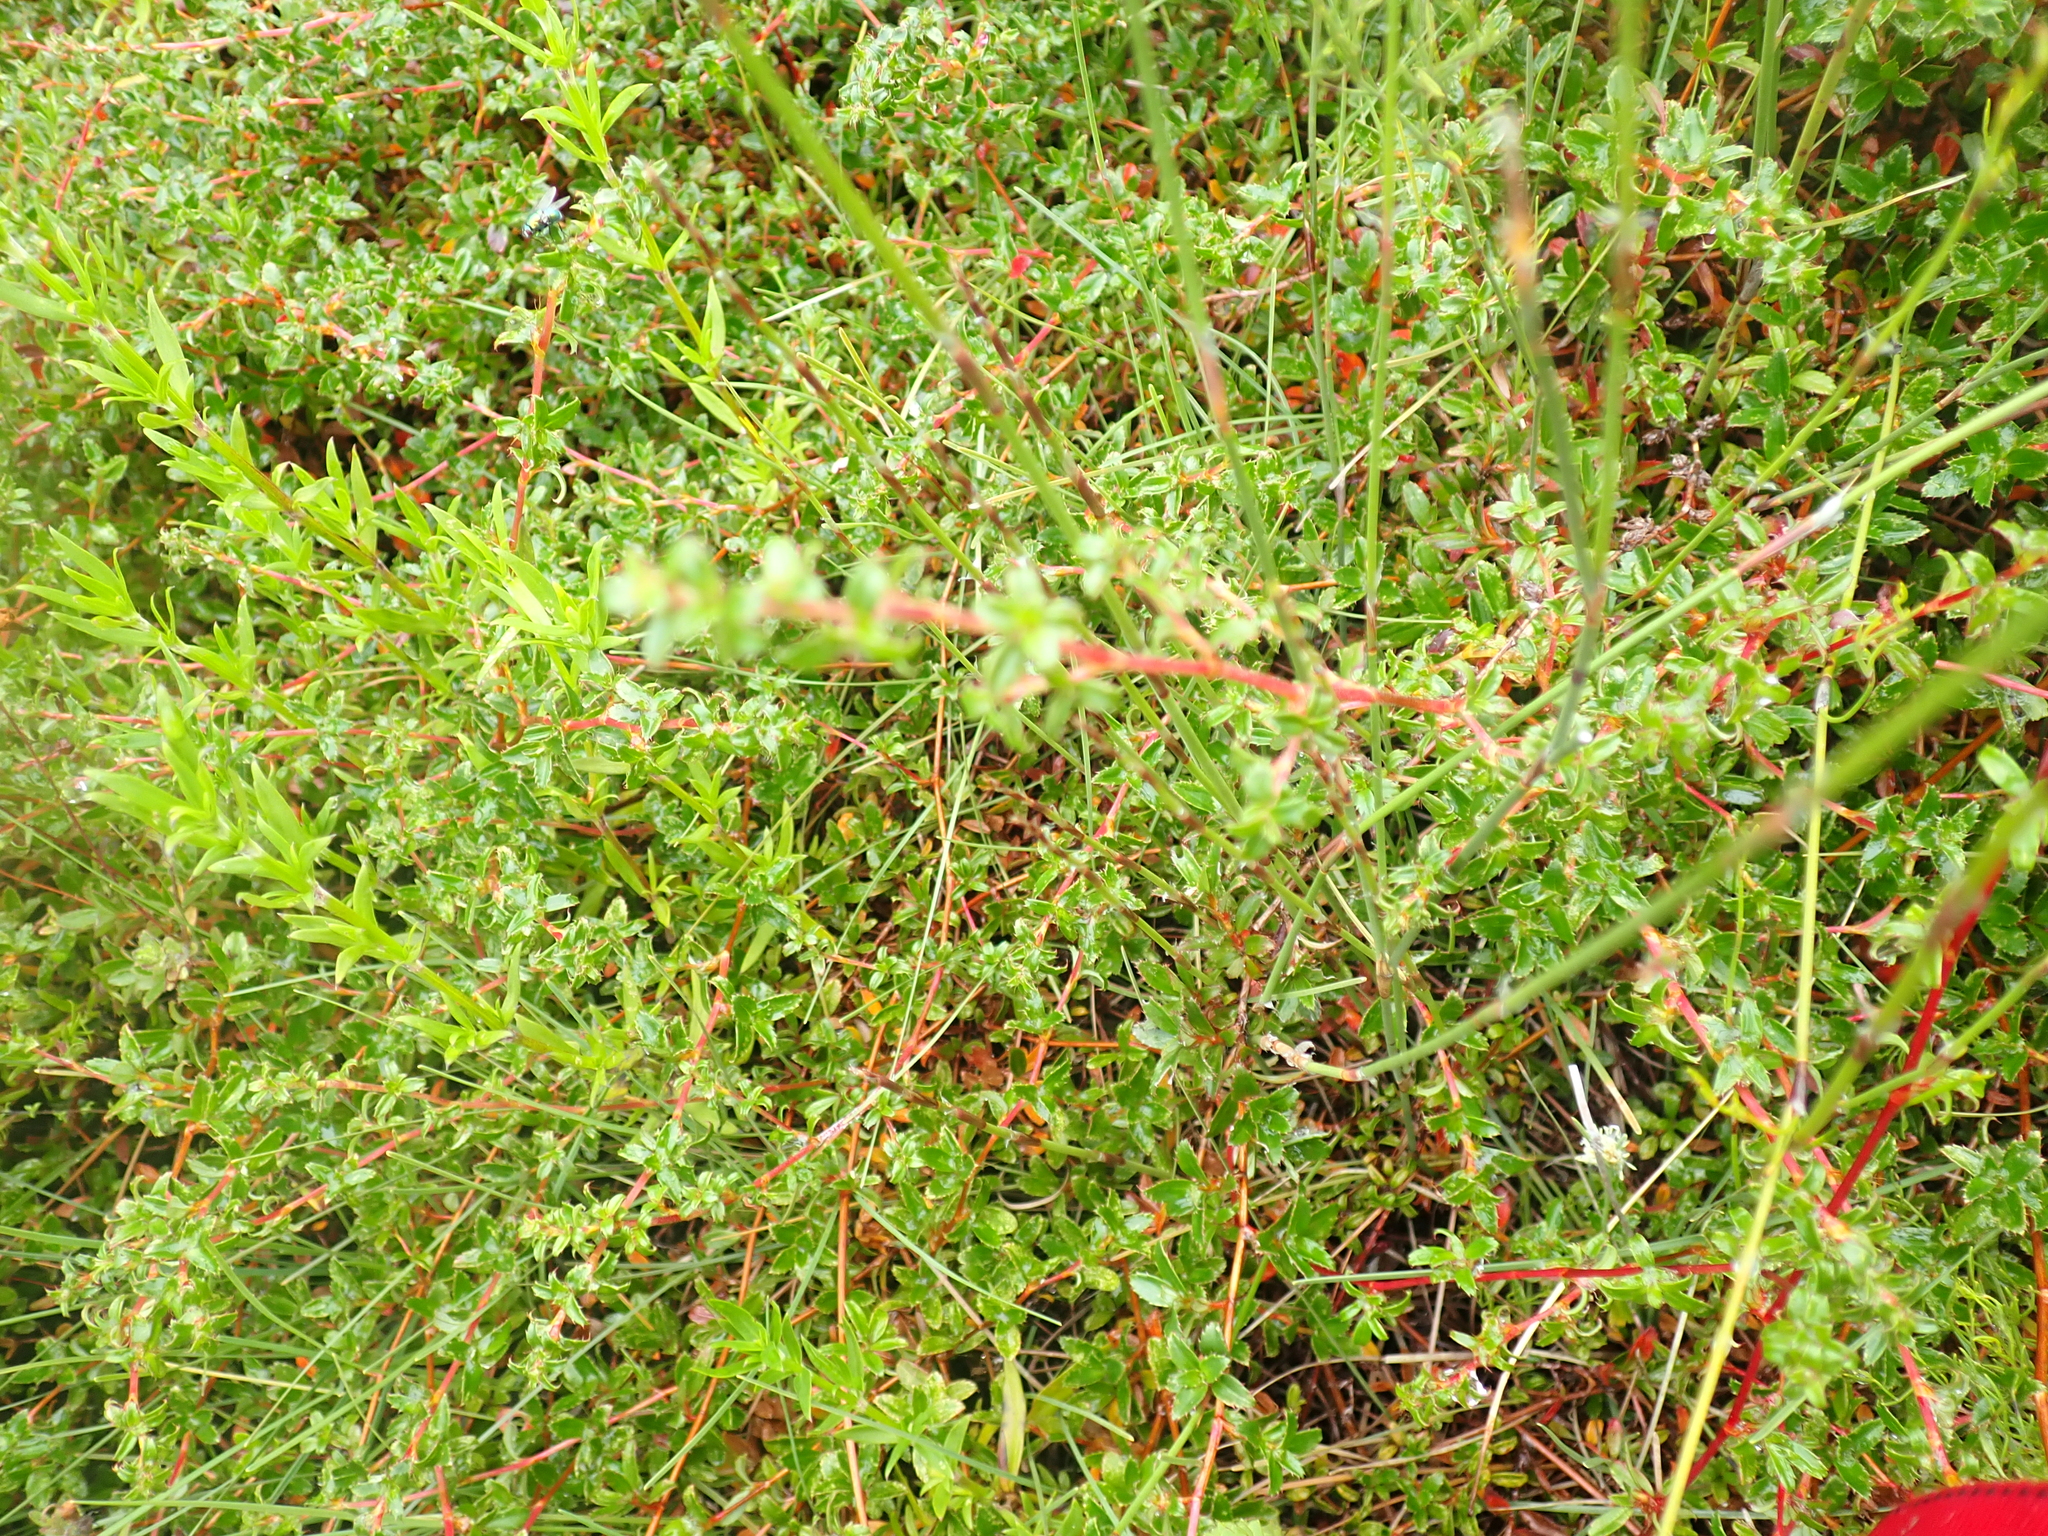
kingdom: Plantae
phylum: Tracheophyta
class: Magnoliopsida
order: Rosales
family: Rosaceae
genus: Cliffortia
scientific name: Cliffortia ferruginea
